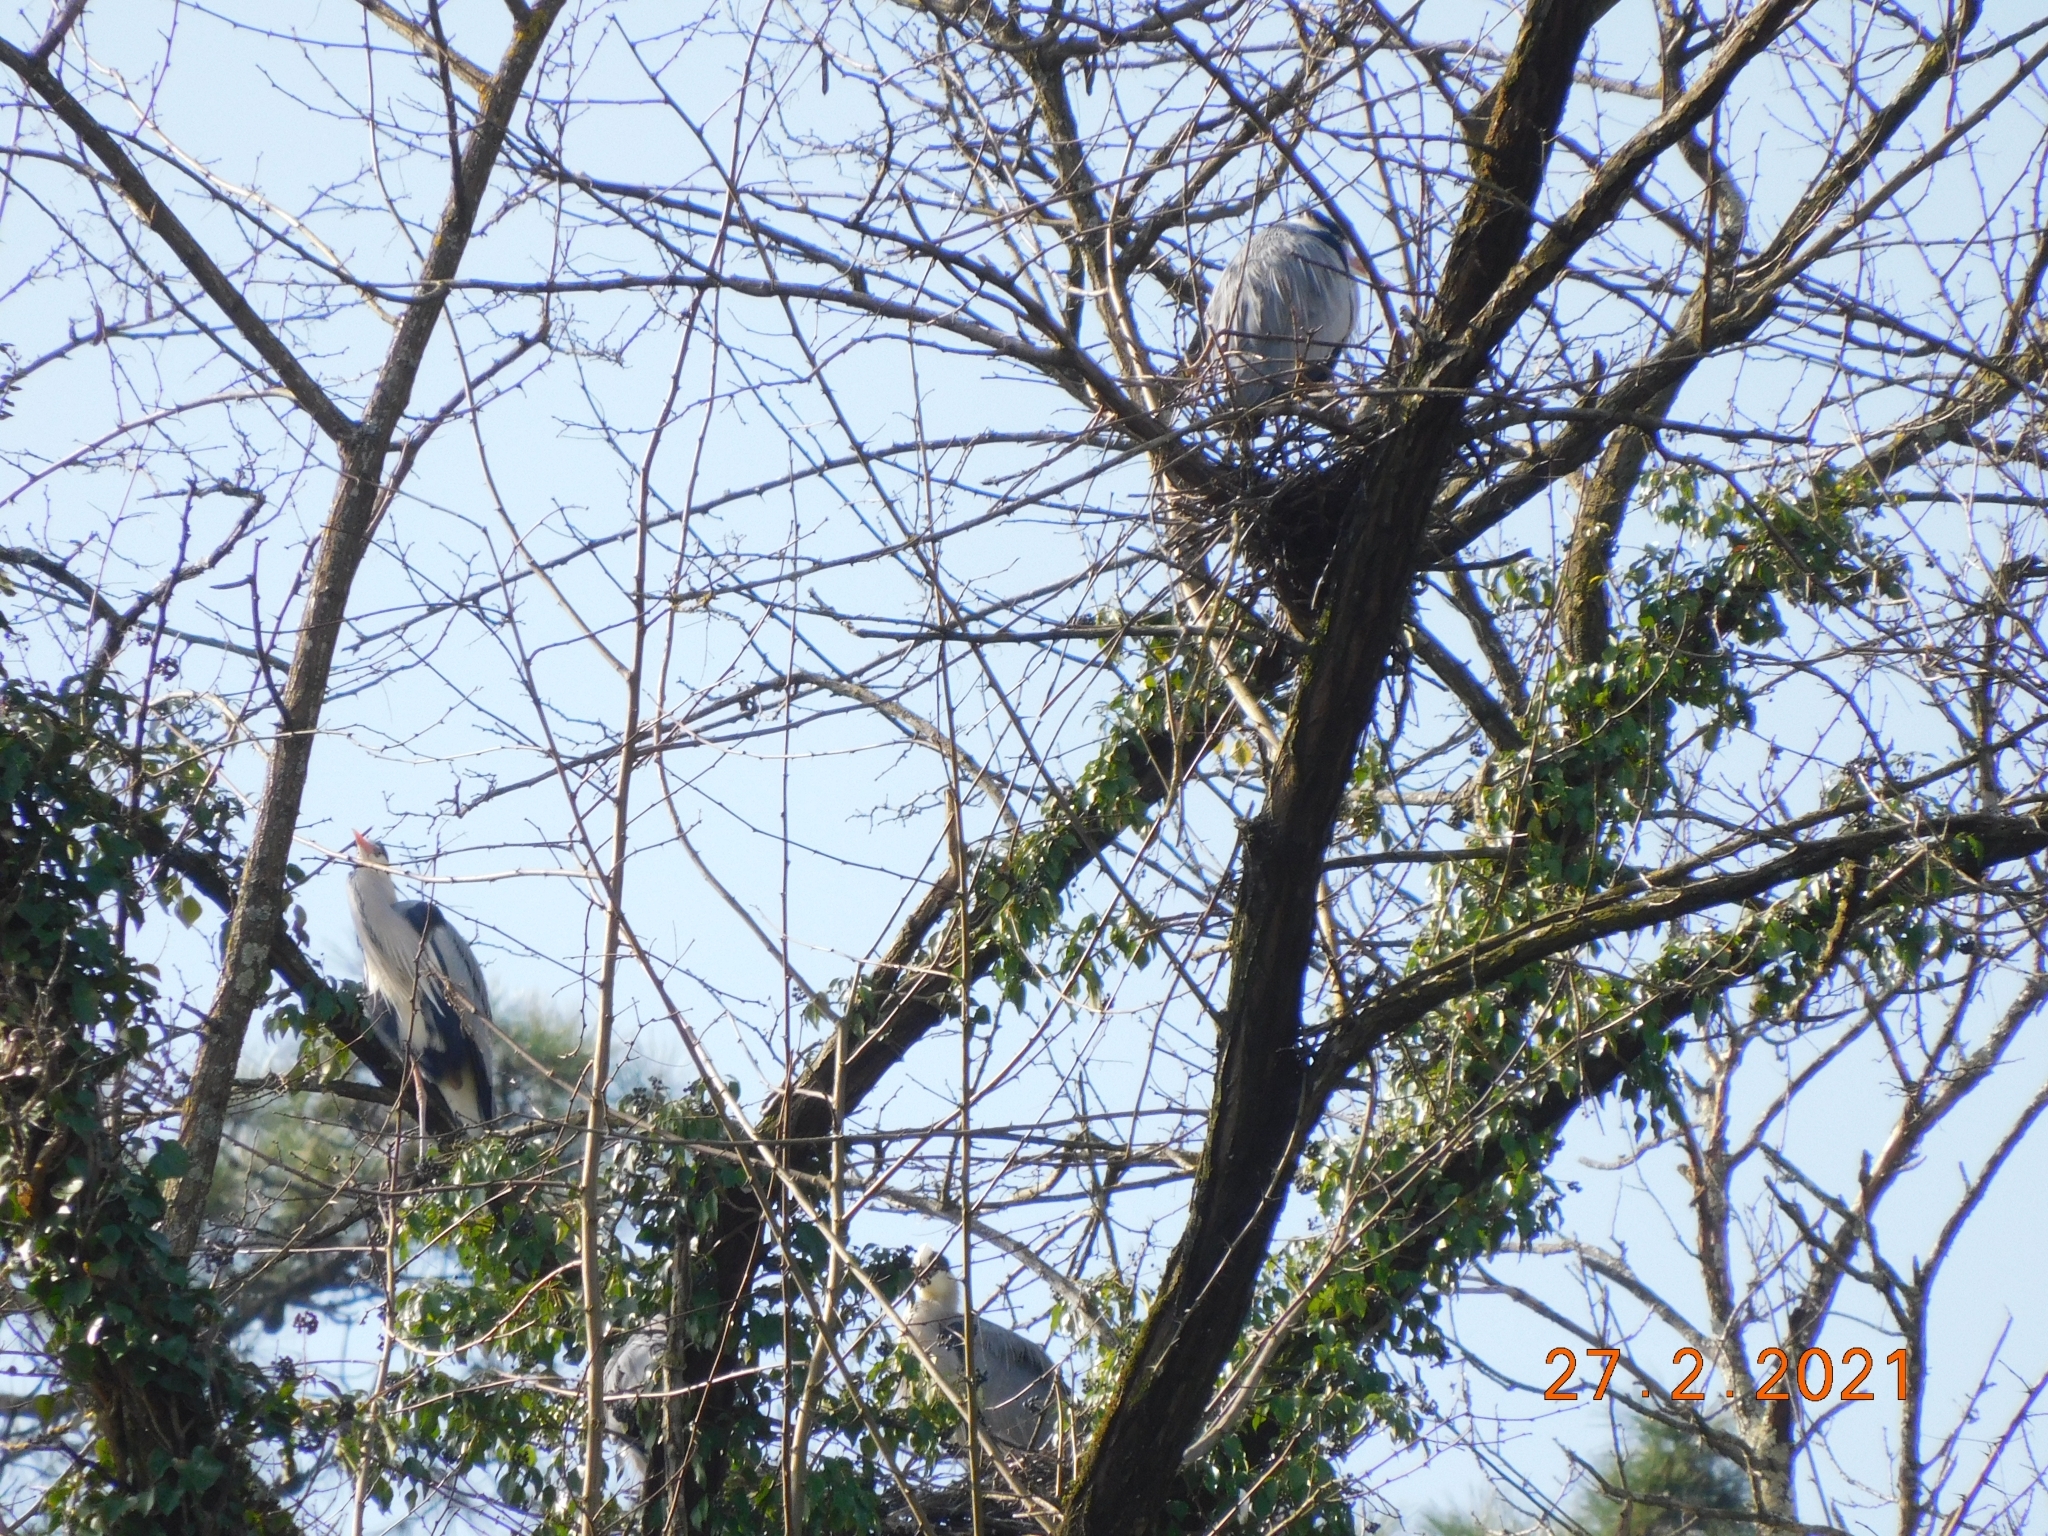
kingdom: Animalia
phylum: Chordata
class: Aves
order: Pelecaniformes
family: Ardeidae
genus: Ardea
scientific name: Ardea cinerea
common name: Grey heron
